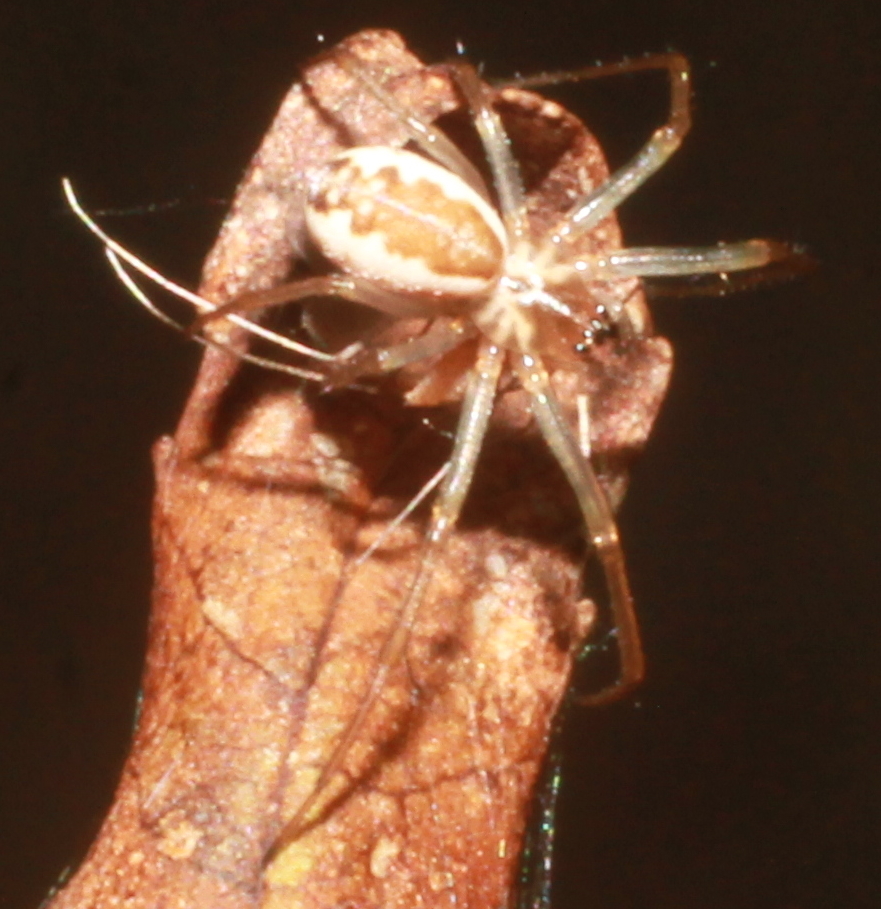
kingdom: Animalia
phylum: Arthropoda
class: Arachnida
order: Araneae
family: Linyphiidae
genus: Neriene
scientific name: Neriene peltata
